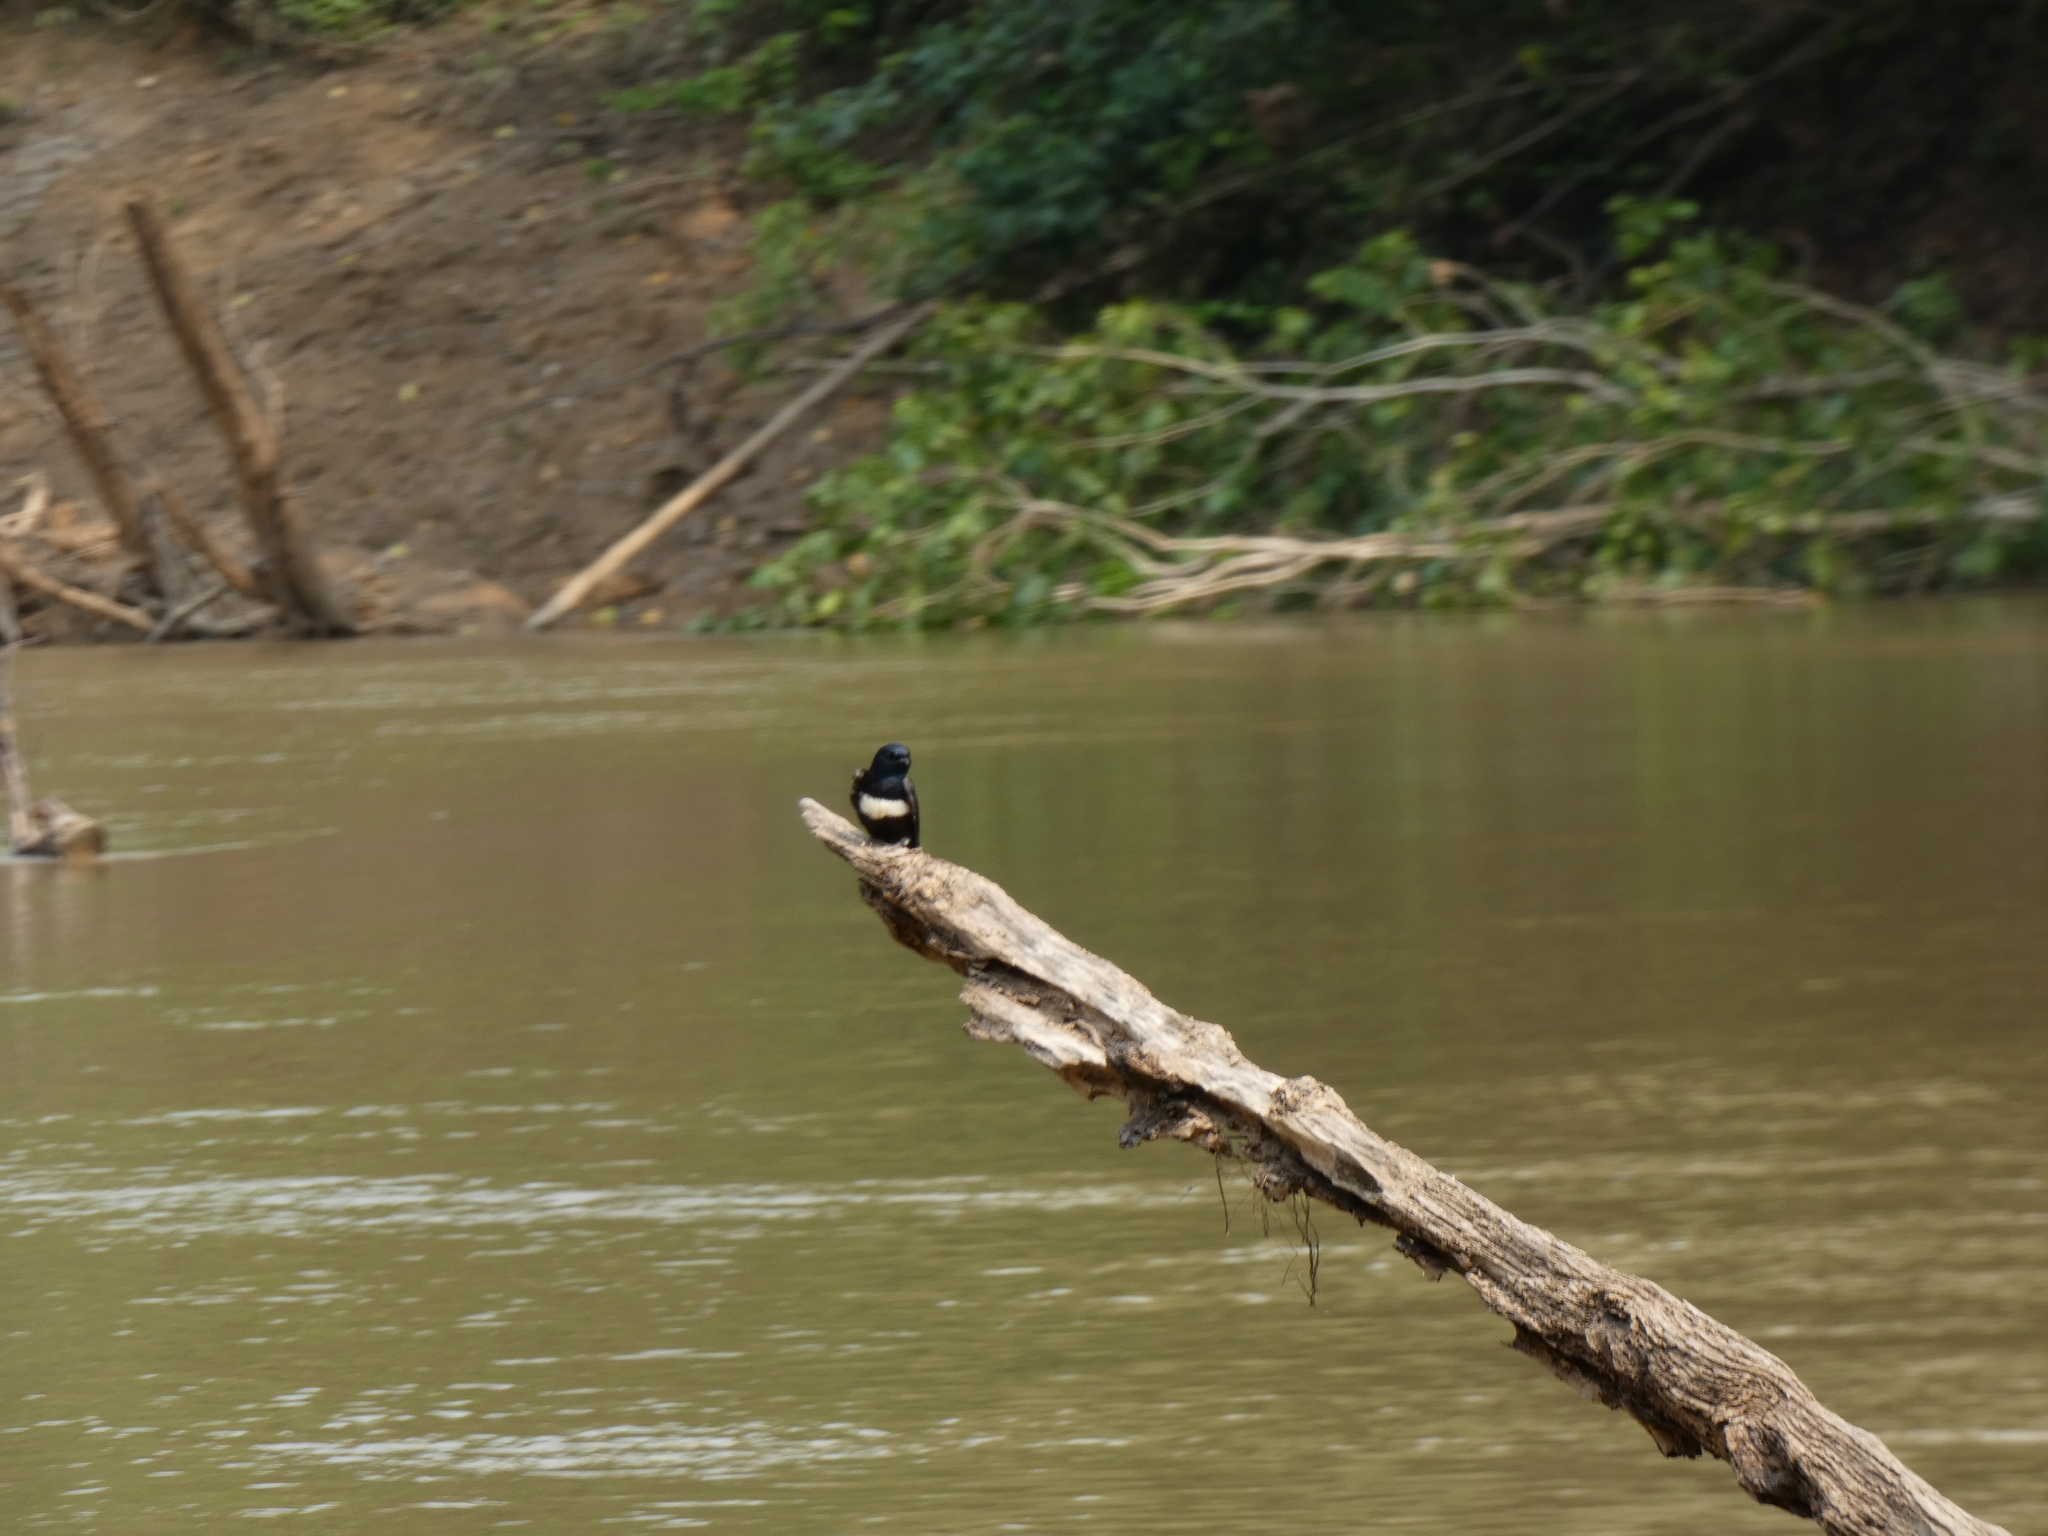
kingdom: Animalia
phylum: Chordata
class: Aves
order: Passeriformes
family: Hirundinidae
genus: Atticora
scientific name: Atticora fasciata
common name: White-banded swallow
